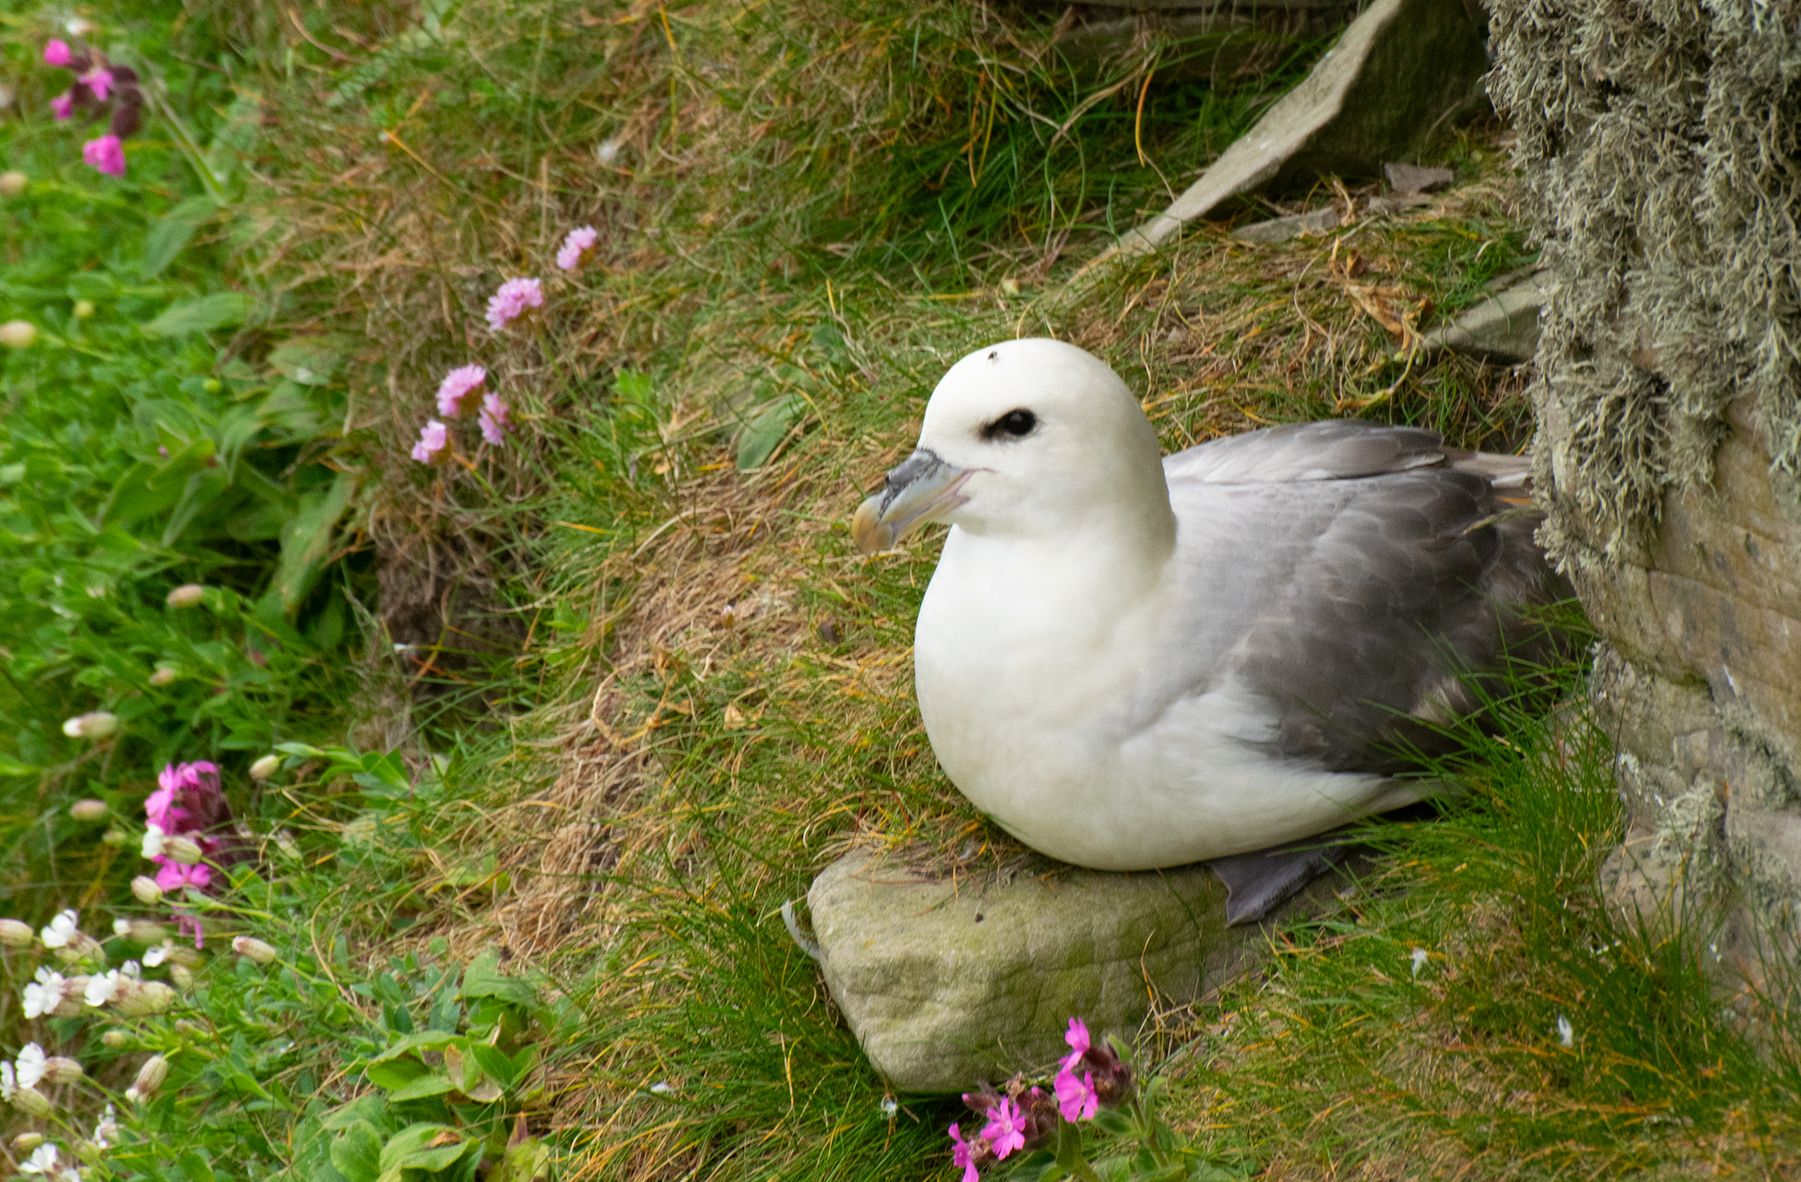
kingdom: Animalia
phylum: Chordata
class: Aves
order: Procellariiformes
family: Procellariidae
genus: Fulmarus
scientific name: Fulmarus glacialis
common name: Northern fulmar
